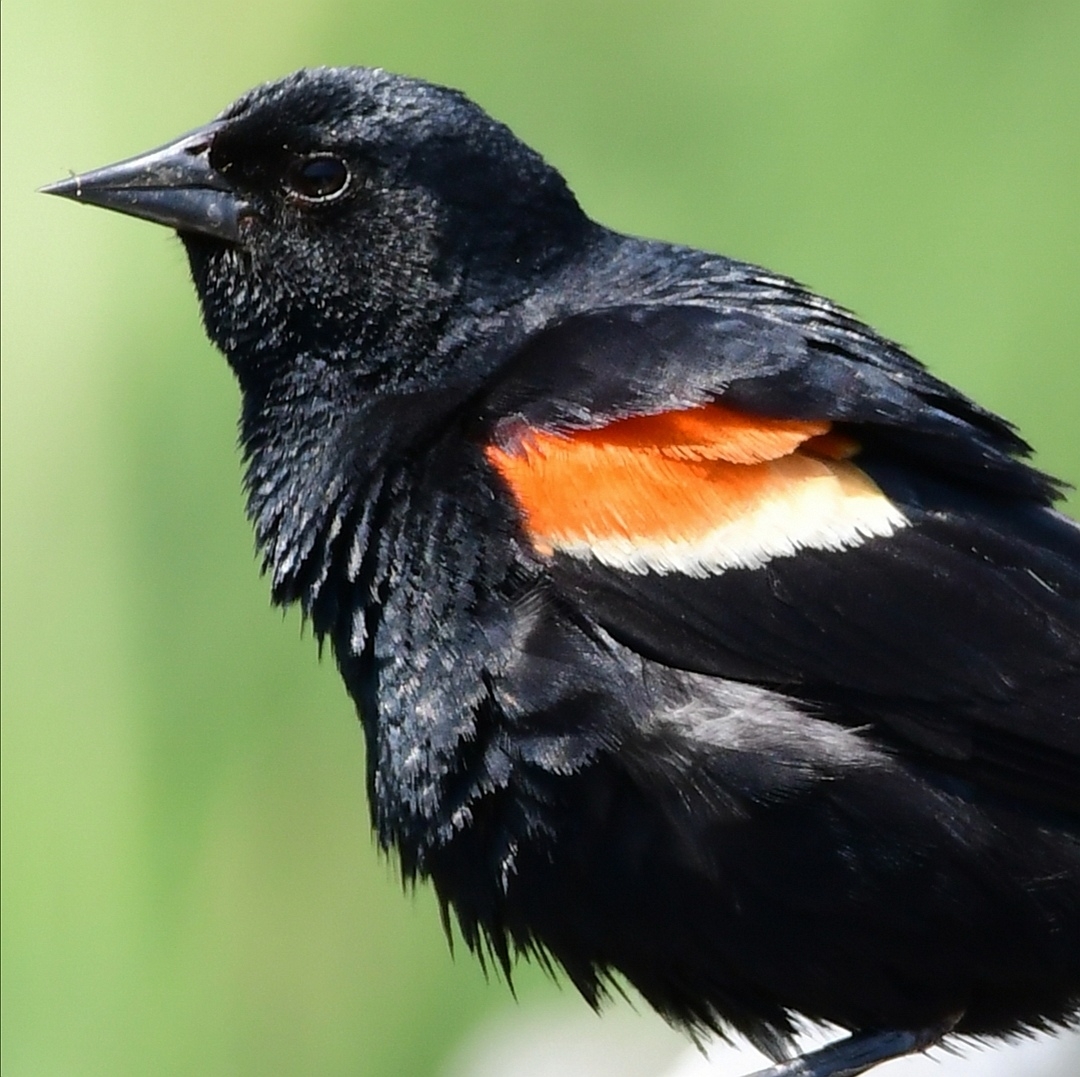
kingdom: Animalia
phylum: Chordata
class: Aves
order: Passeriformes
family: Icteridae
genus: Agelaius
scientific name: Agelaius phoeniceus
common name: Red-winged blackbird
